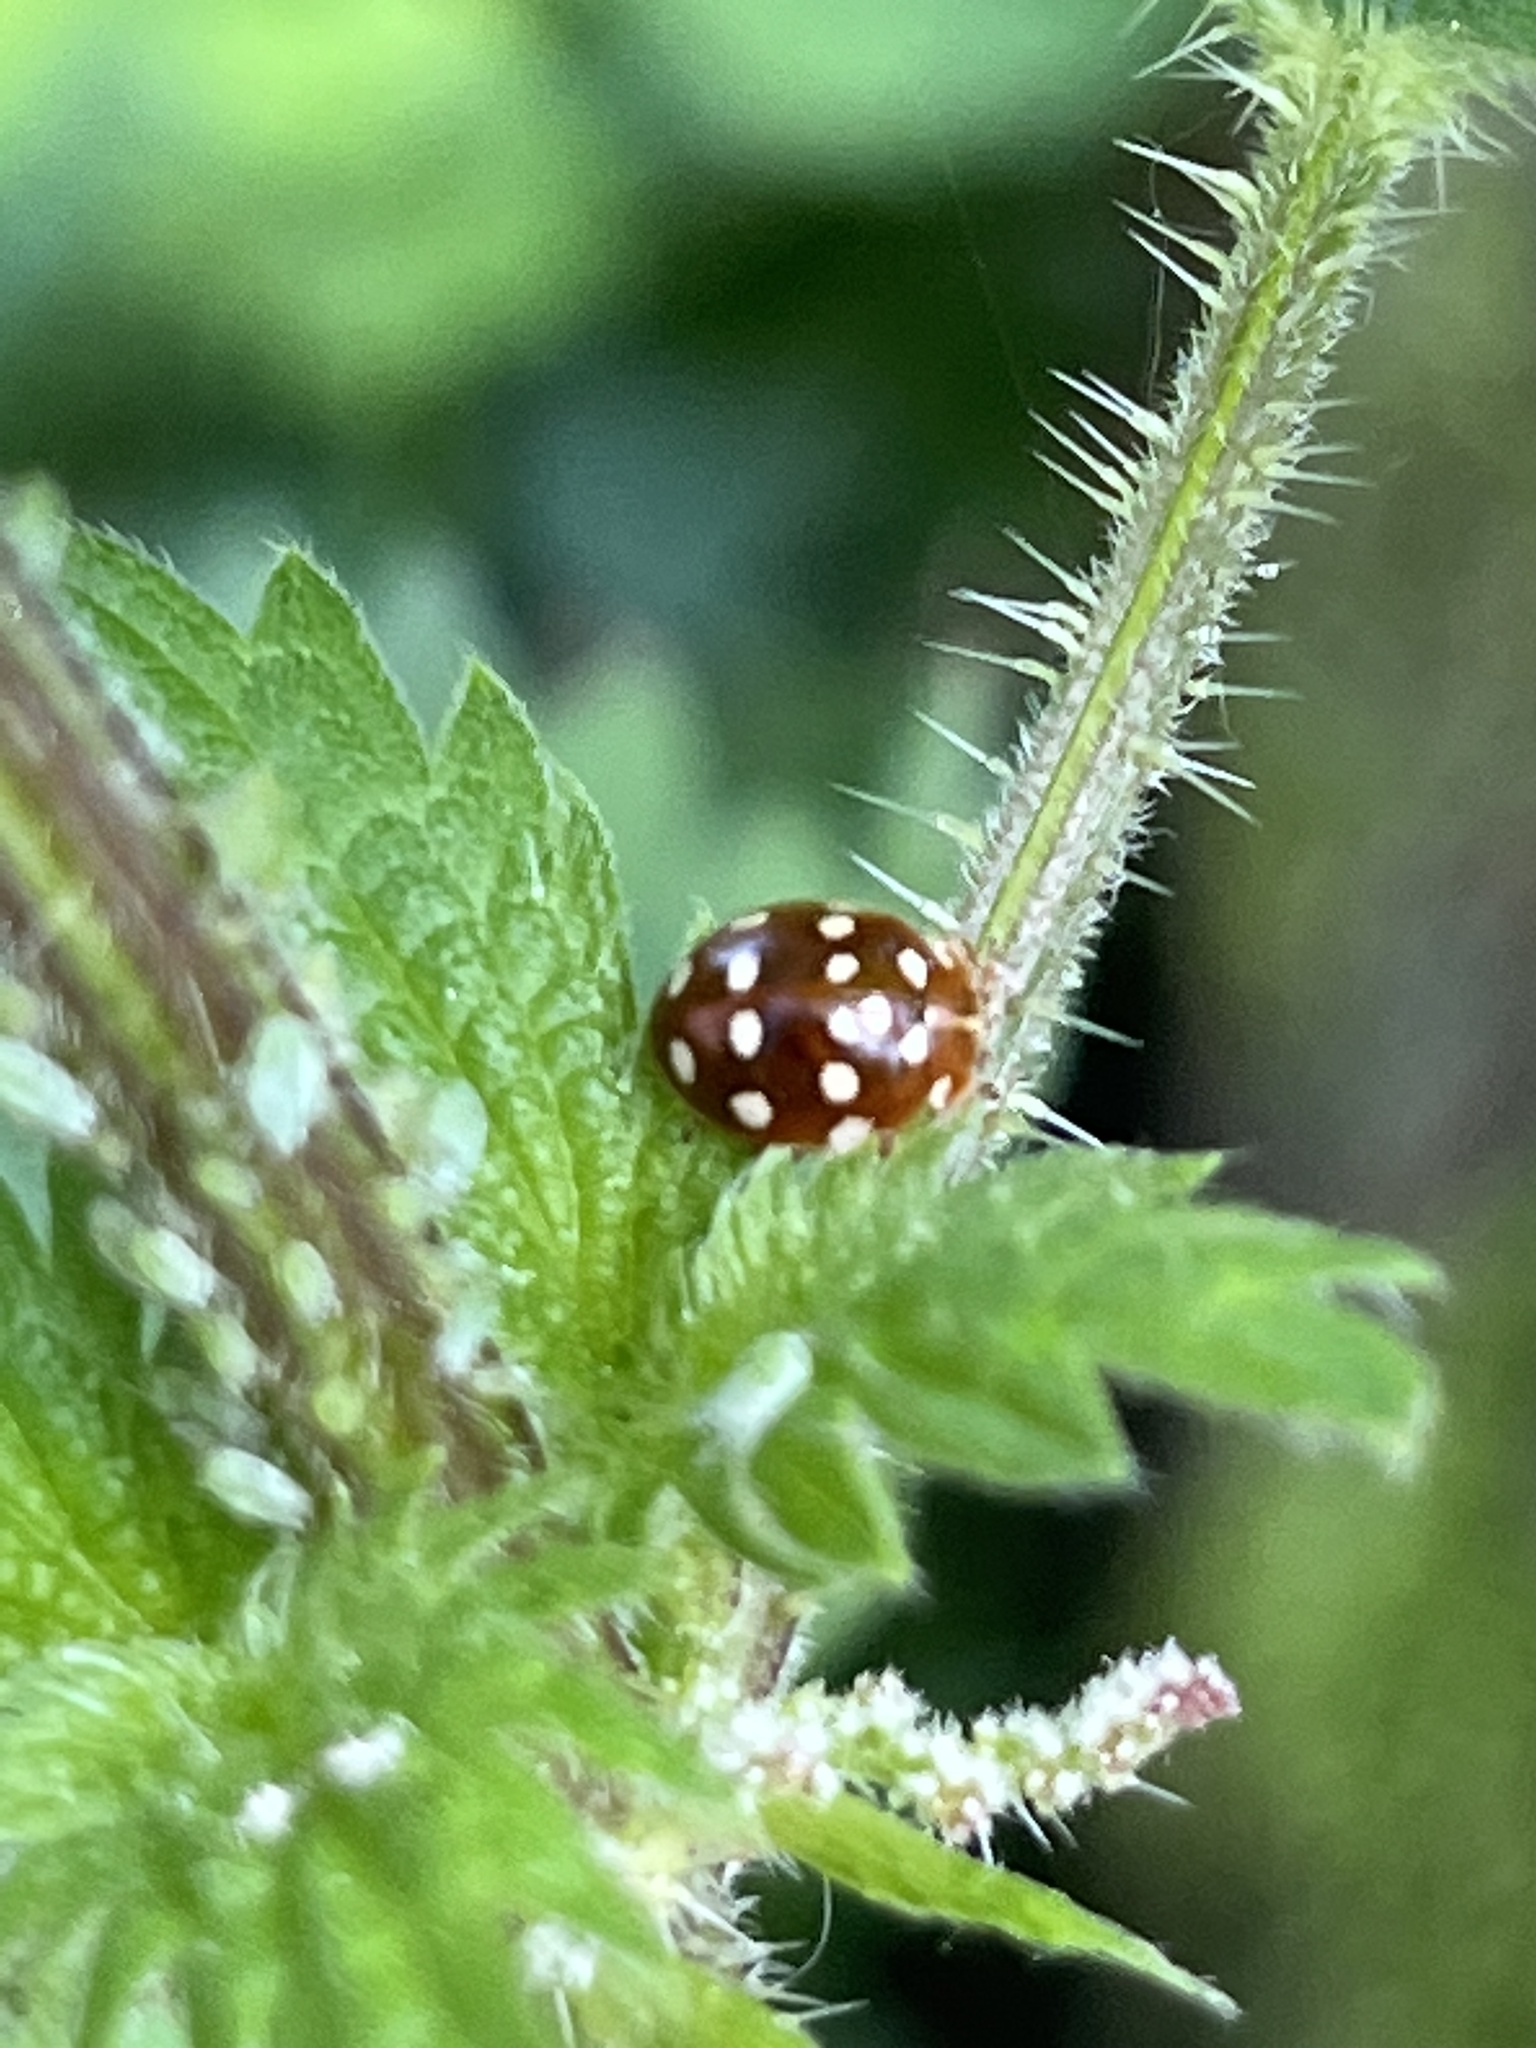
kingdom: Animalia
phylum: Arthropoda
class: Insecta
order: Coleoptera
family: Coccinellidae
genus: Calvia
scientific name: Calvia quatuordecimguttata
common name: Cream-spot ladybird
